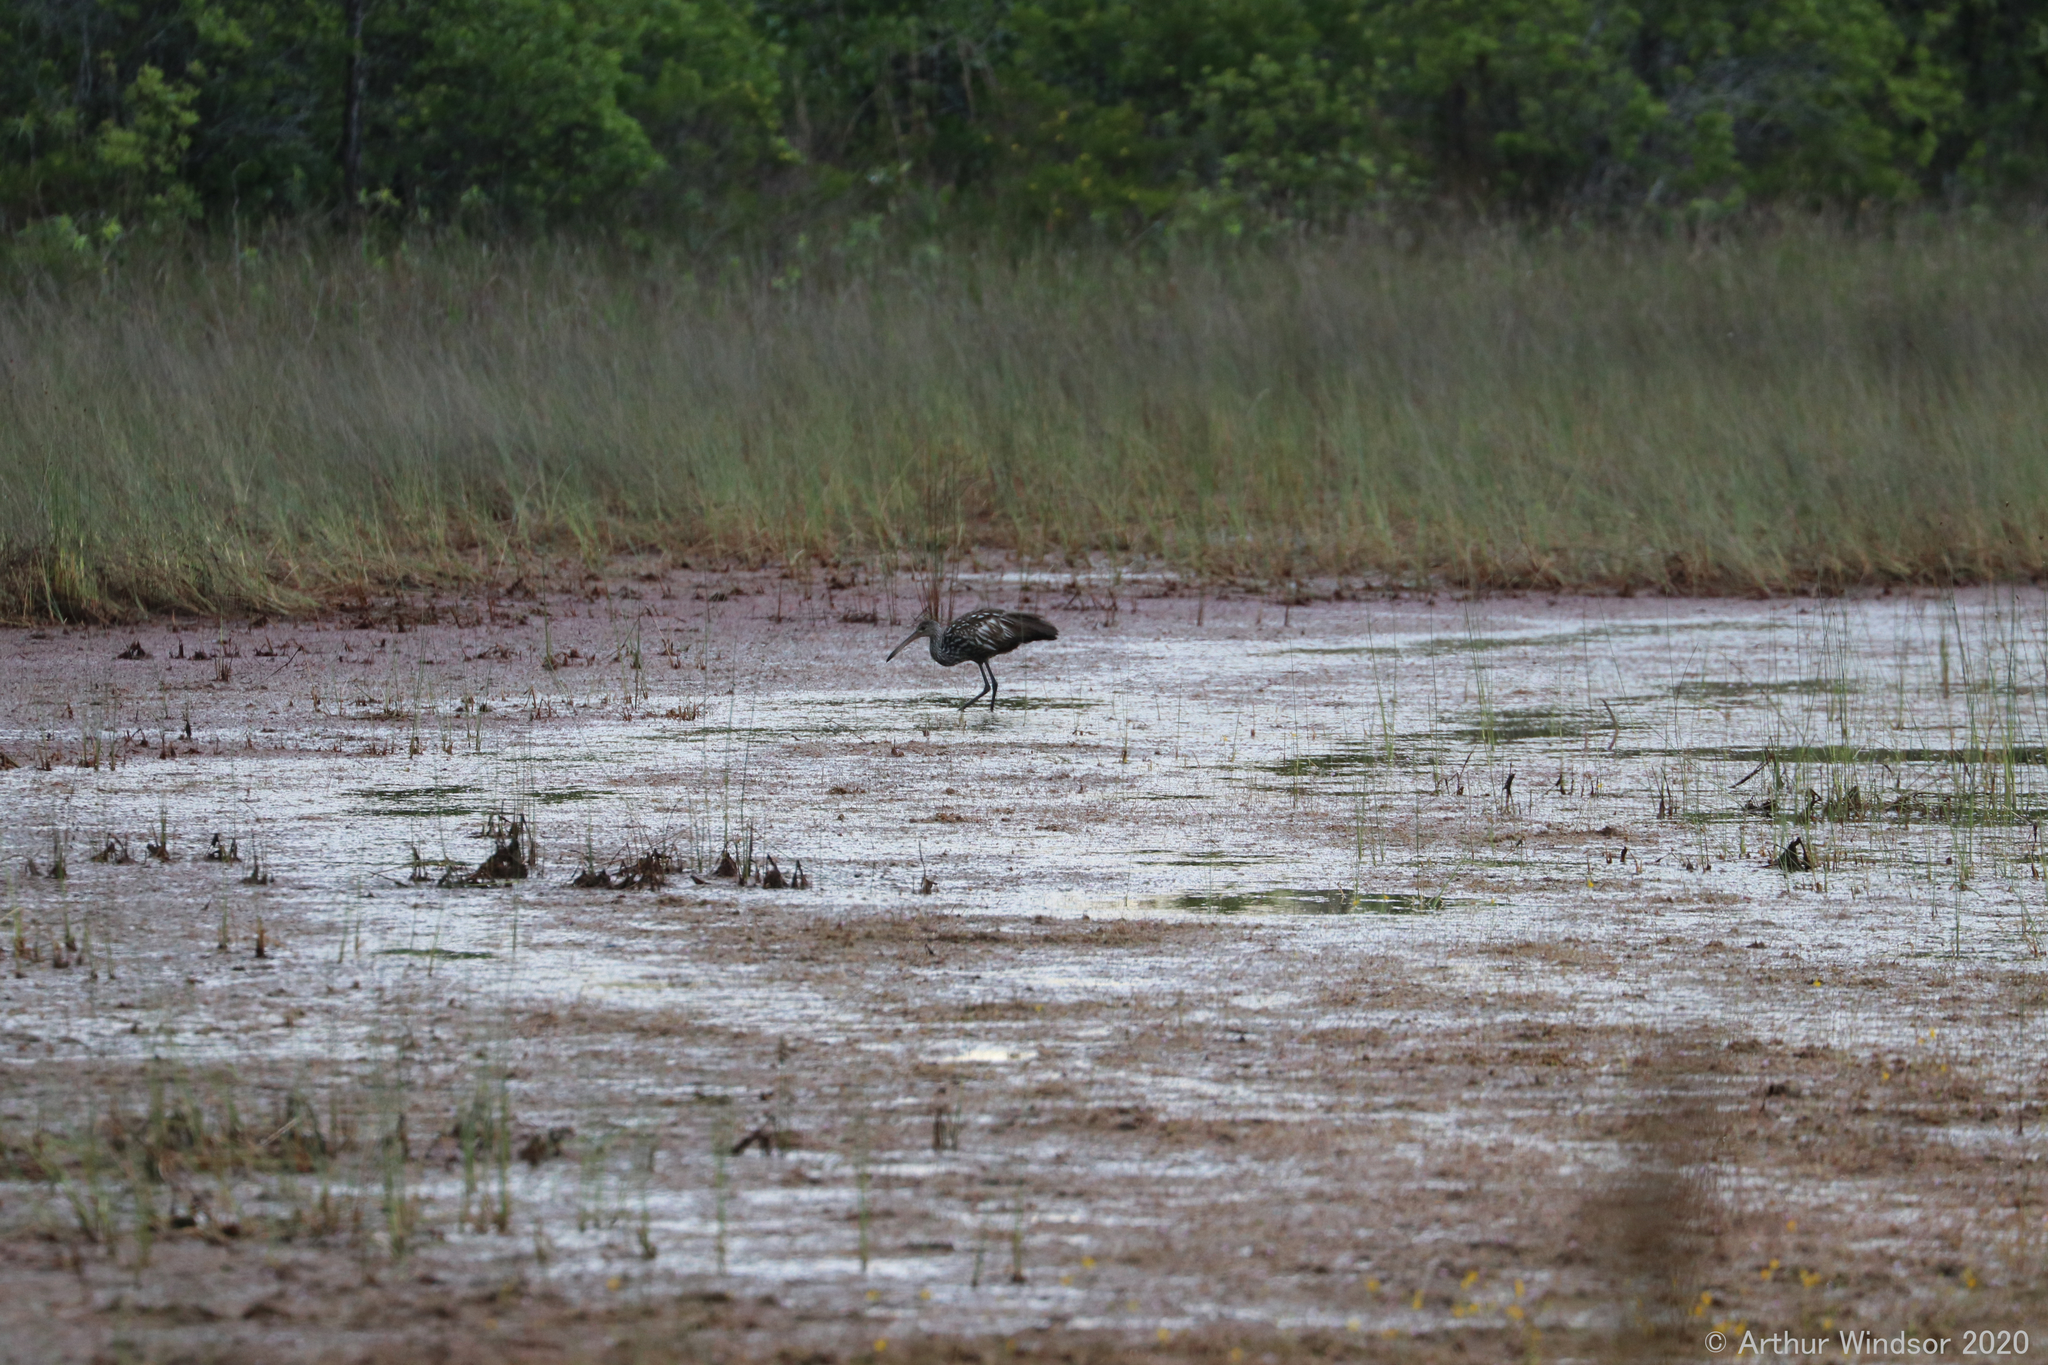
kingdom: Animalia
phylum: Chordata
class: Aves
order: Gruiformes
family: Aramidae
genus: Aramus
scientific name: Aramus guarauna
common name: Limpkin
